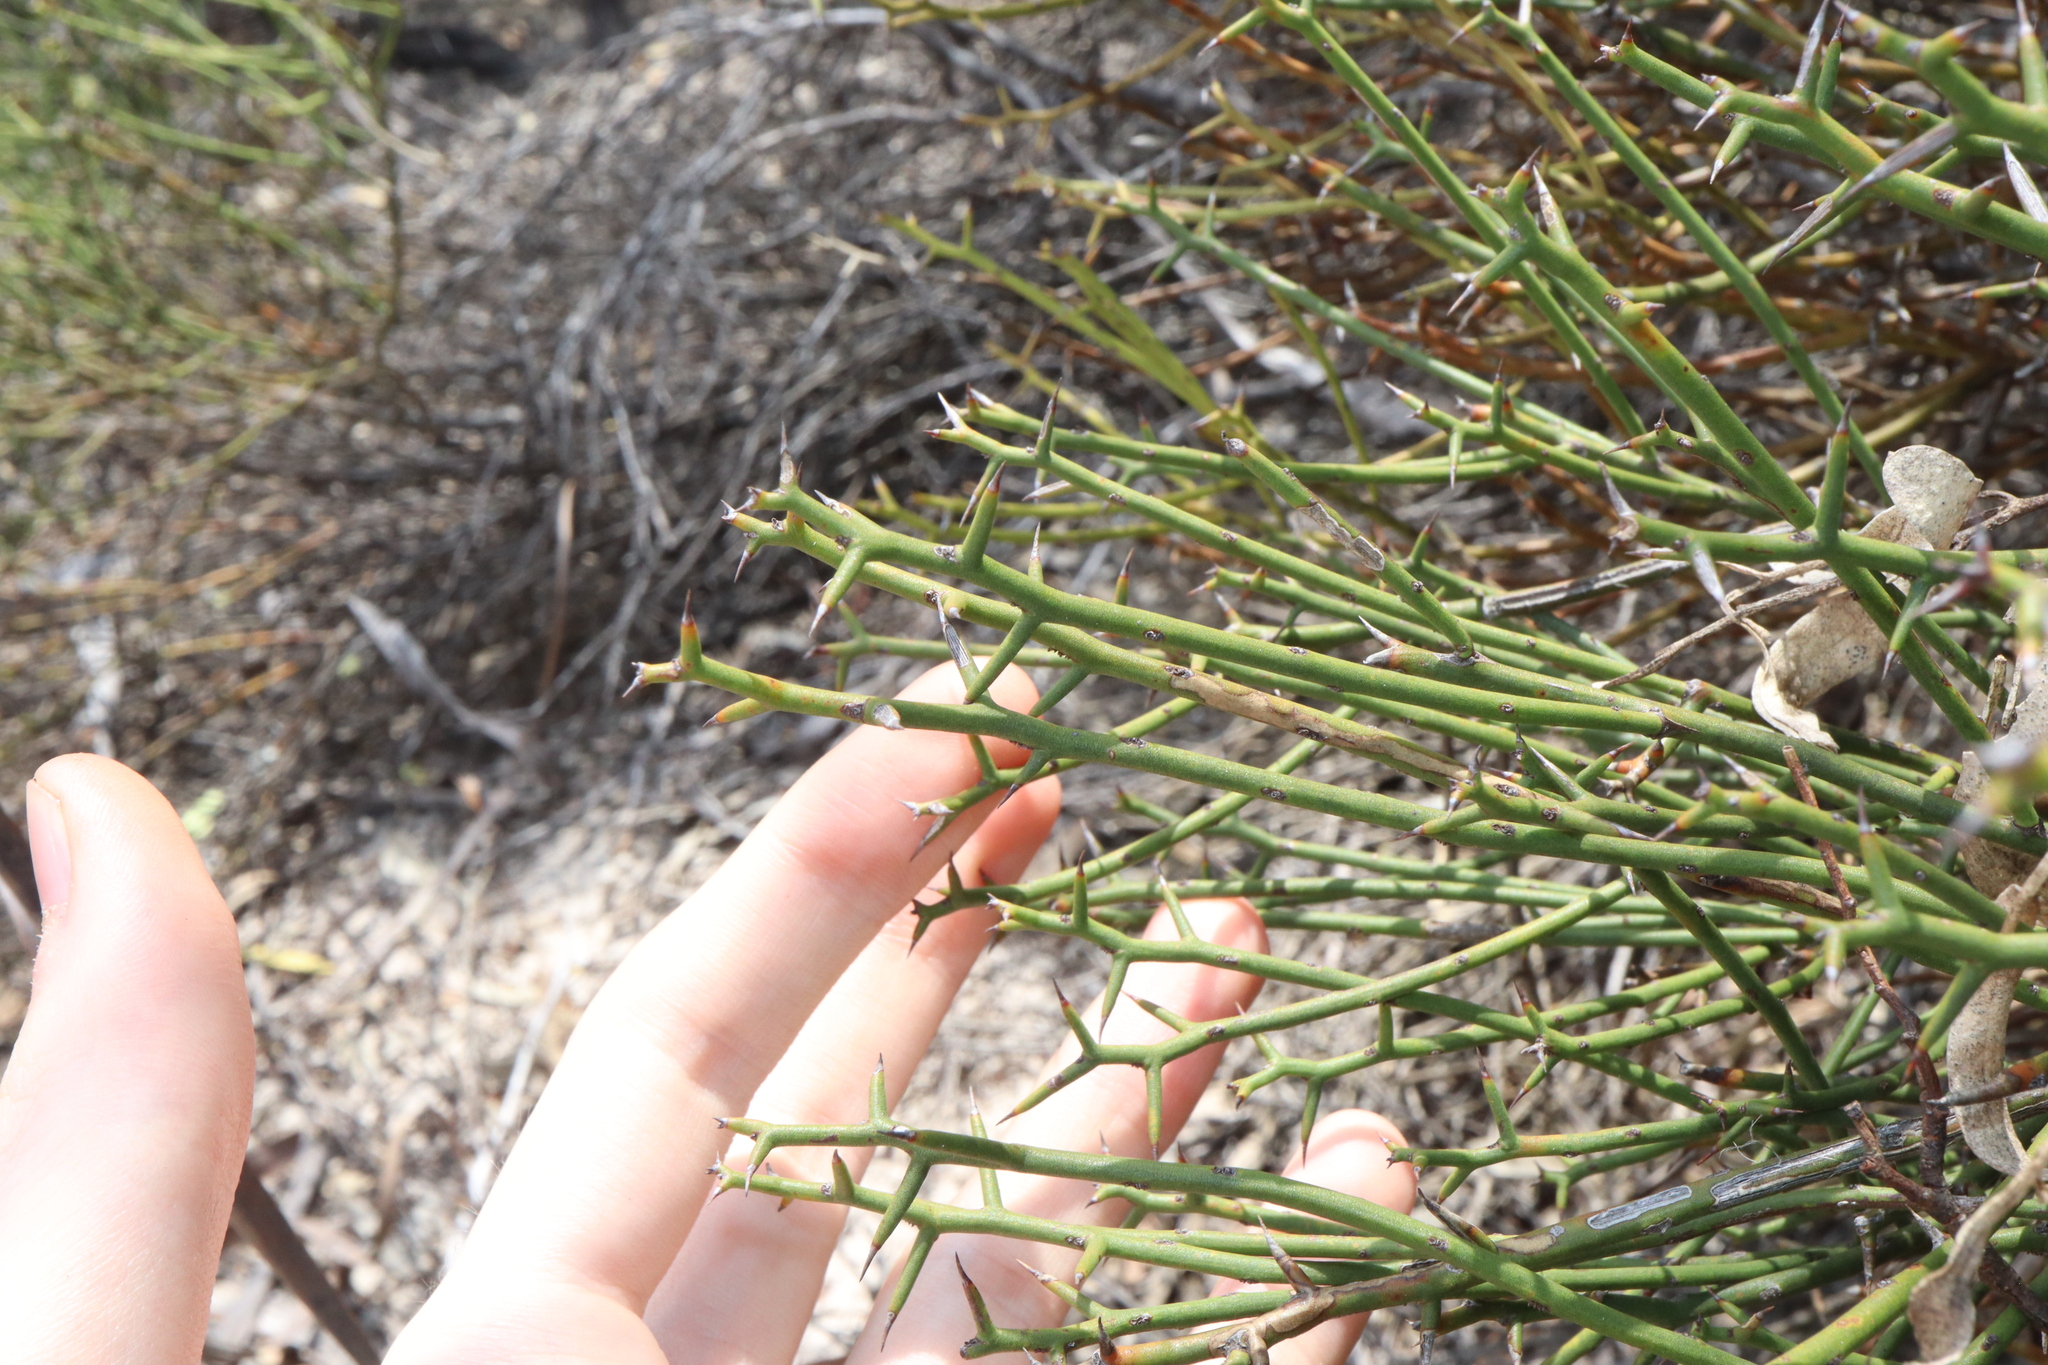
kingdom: Plantae
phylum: Tracheophyta
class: Magnoliopsida
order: Fabales
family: Fabaceae
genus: Daviesia
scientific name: Daviesia aphylla
